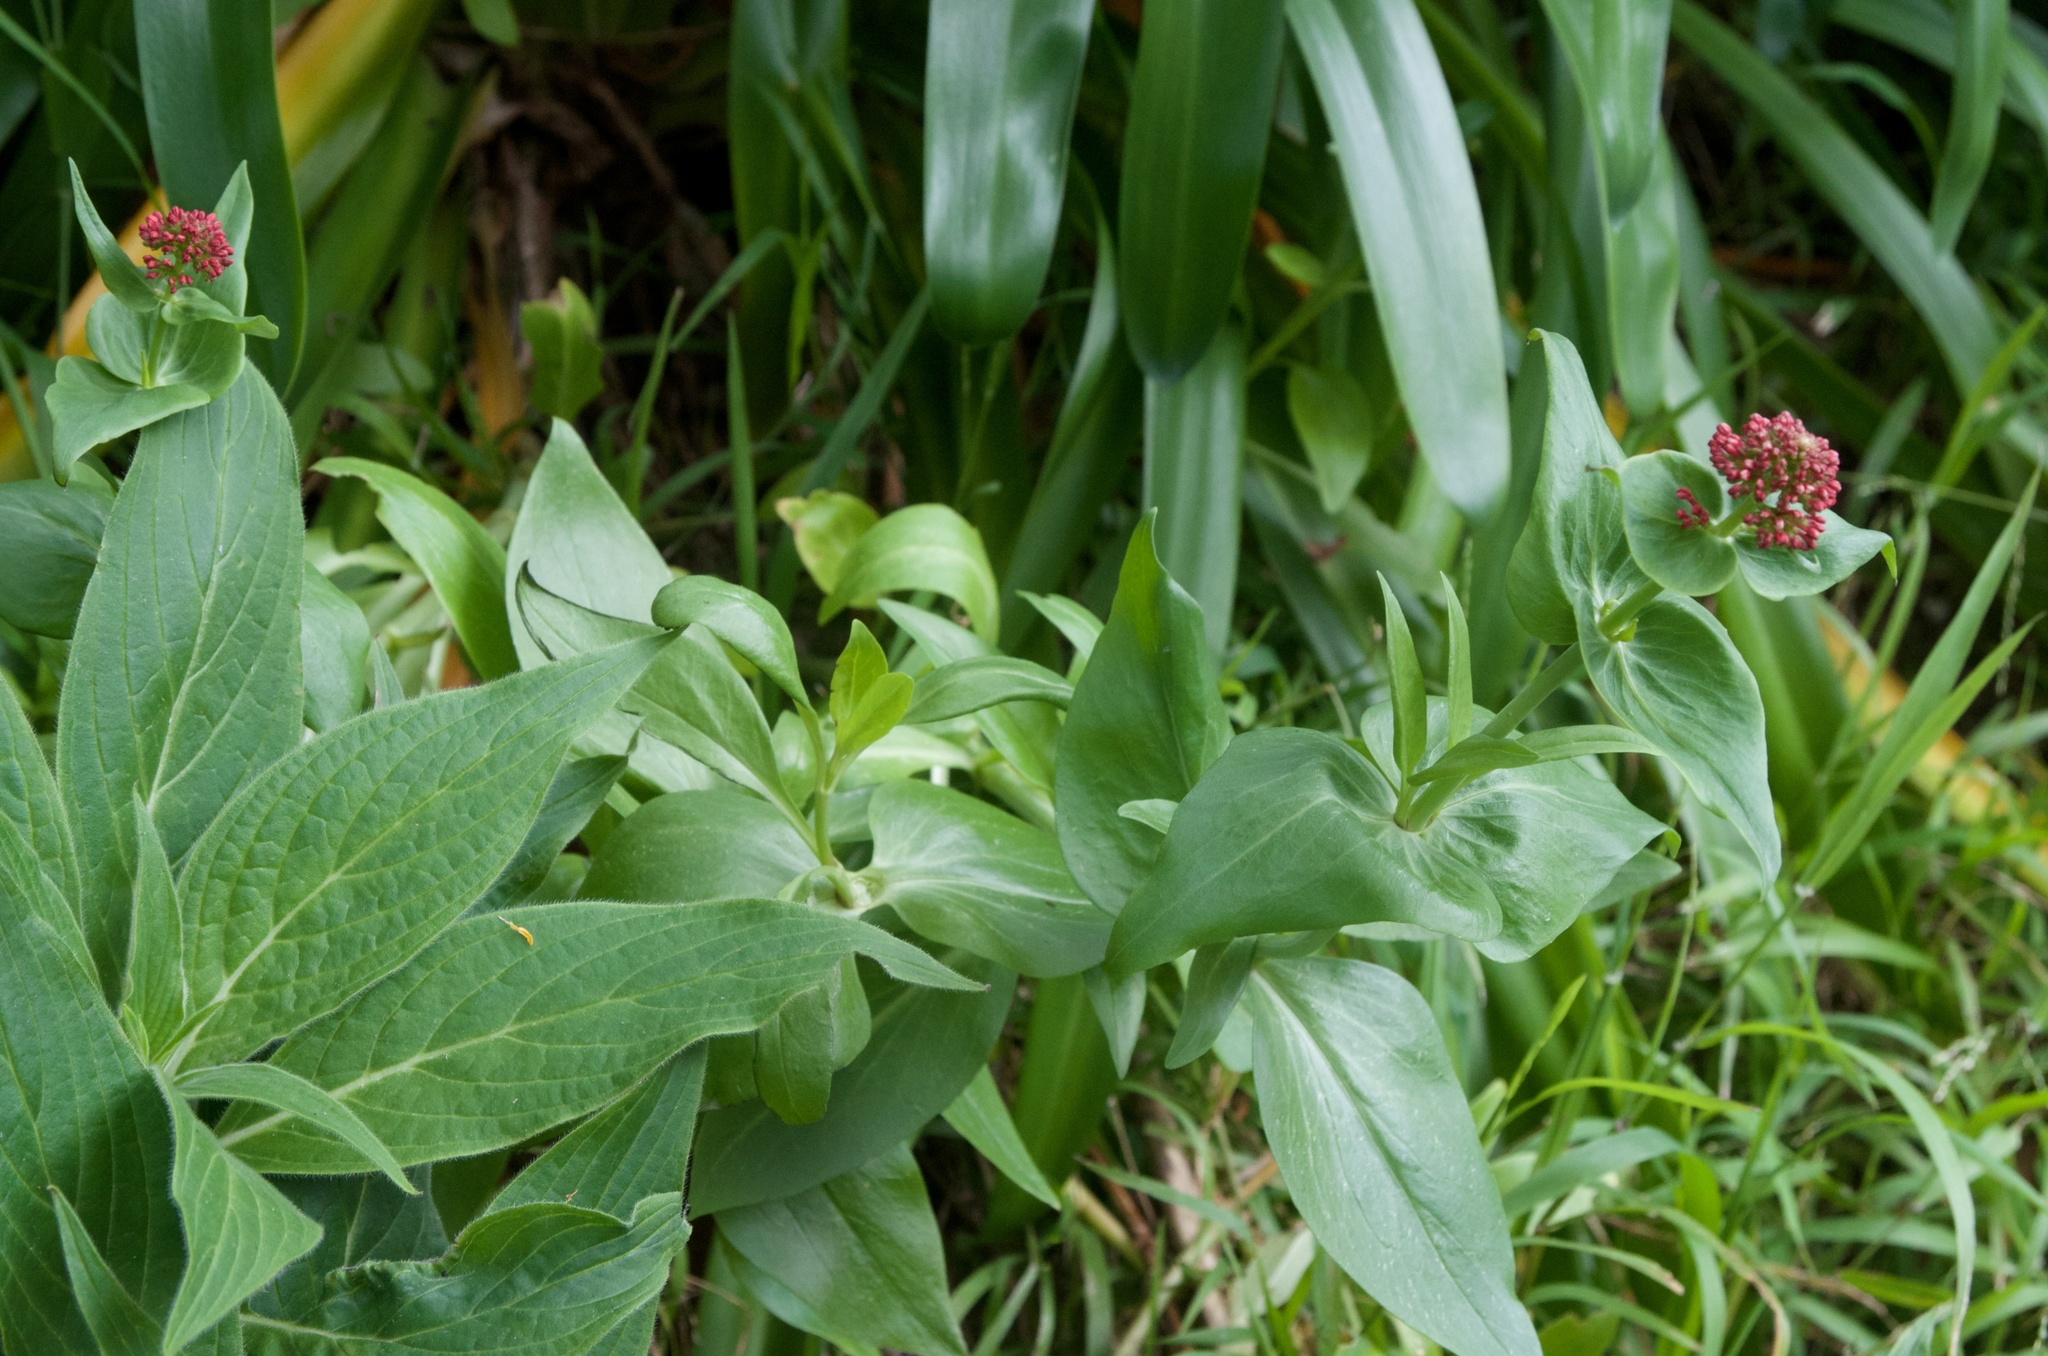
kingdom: Plantae
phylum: Tracheophyta
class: Magnoliopsida
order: Dipsacales
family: Caprifoliaceae
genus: Centranthus
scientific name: Centranthus ruber
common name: Red valerian
